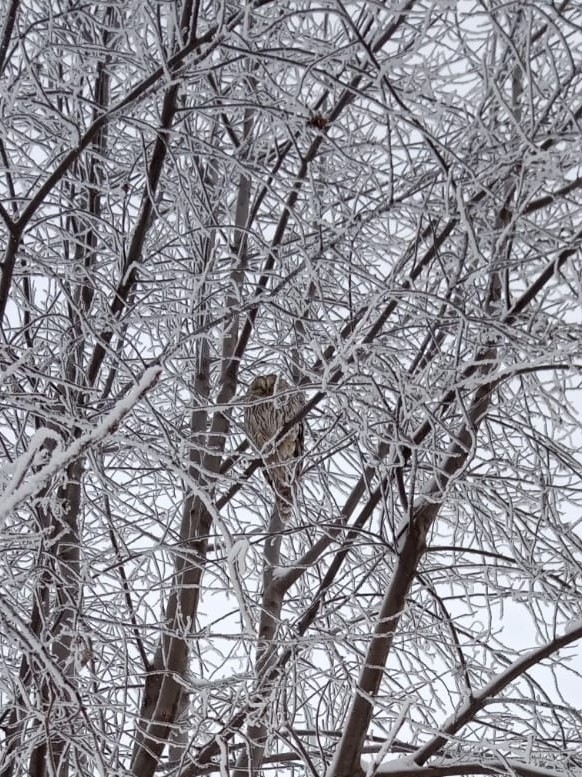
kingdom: Animalia
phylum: Chordata
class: Aves
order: Strigiformes
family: Strigidae
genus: Strix
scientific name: Strix uralensis
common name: Ural owl
